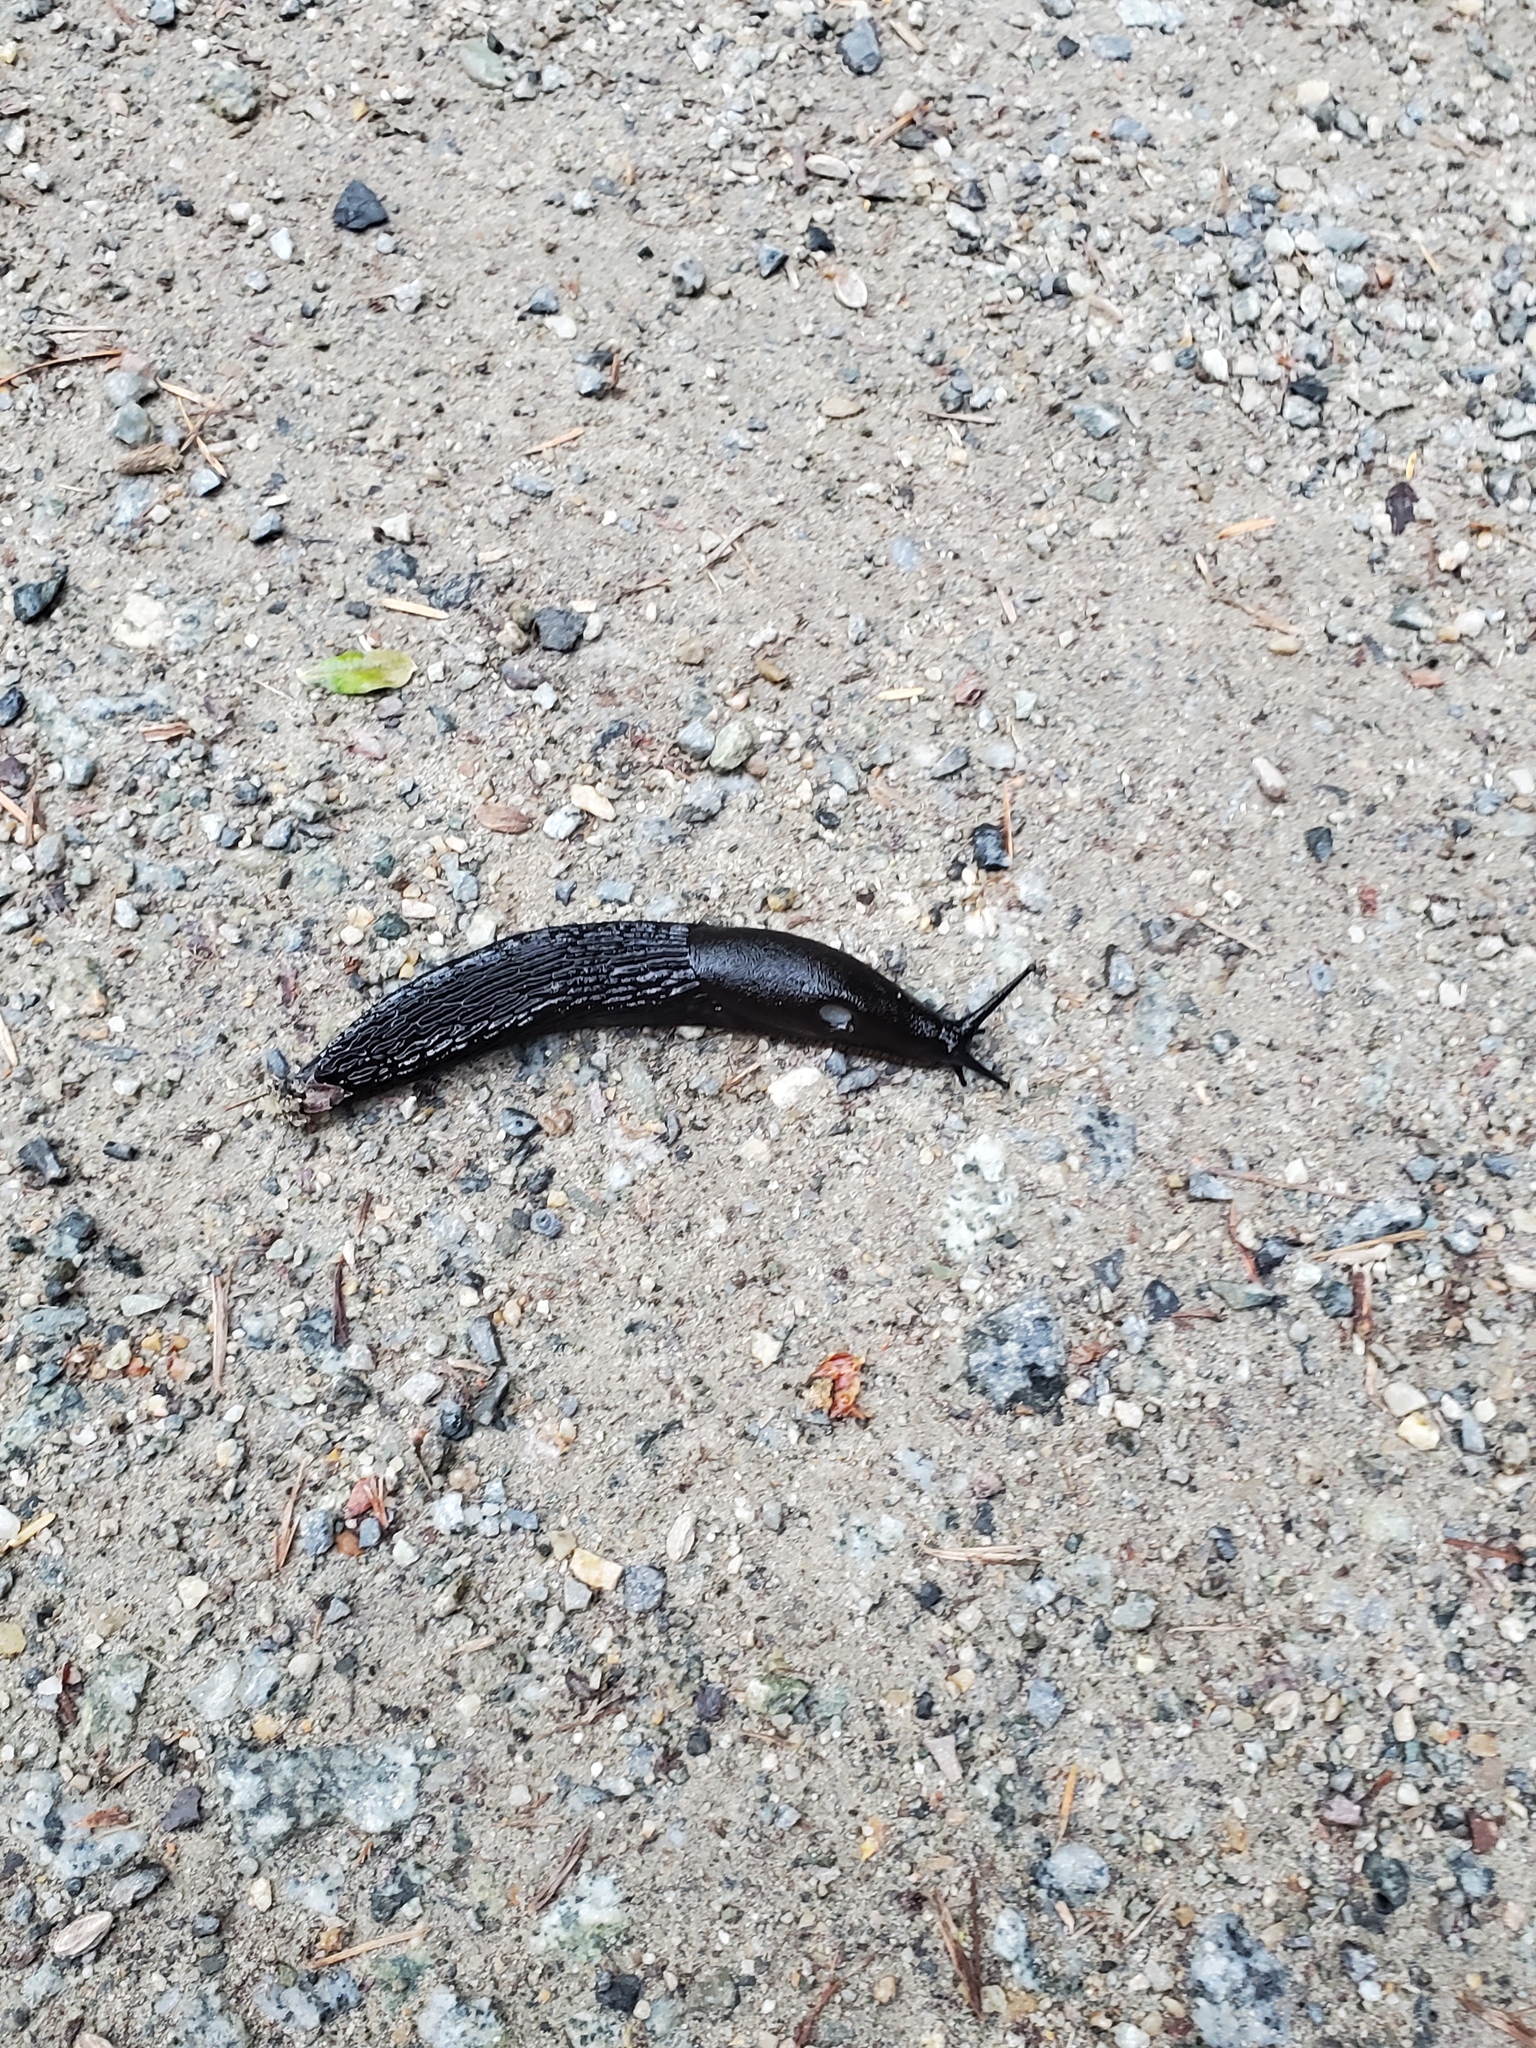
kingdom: Animalia
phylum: Mollusca
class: Gastropoda
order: Stylommatophora
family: Arionidae
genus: Arion
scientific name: Arion
